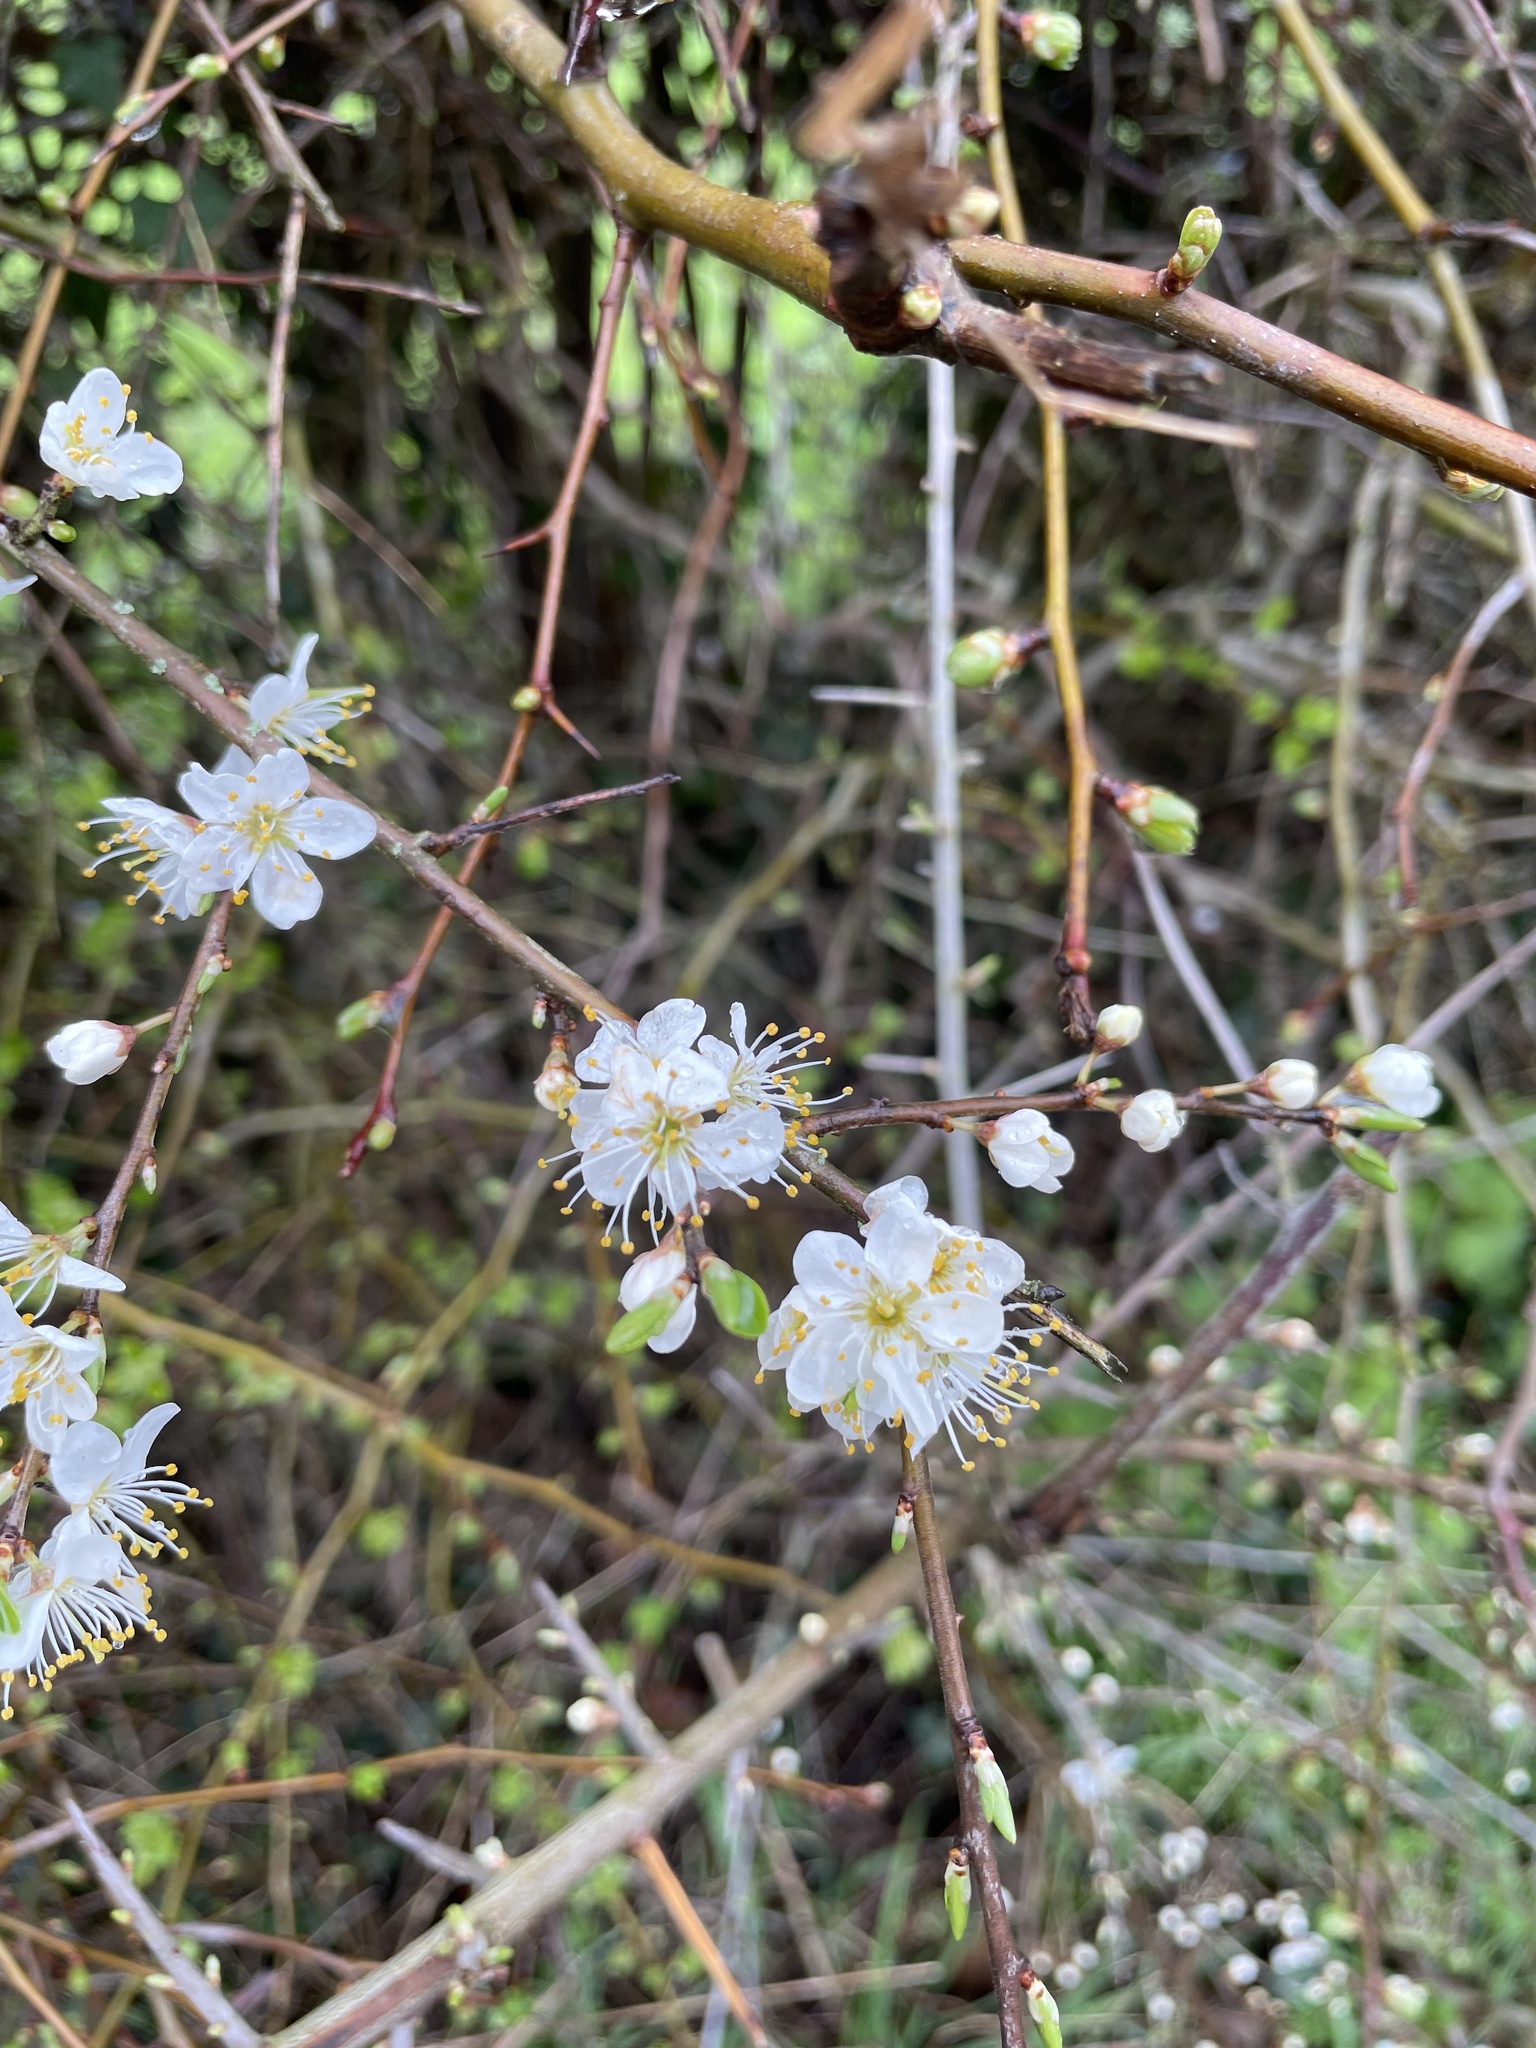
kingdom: Plantae
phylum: Tracheophyta
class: Magnoliopsida
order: Rosales
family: Rosaceae
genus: Prunus
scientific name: Prunus spinosa
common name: Blackthorn
